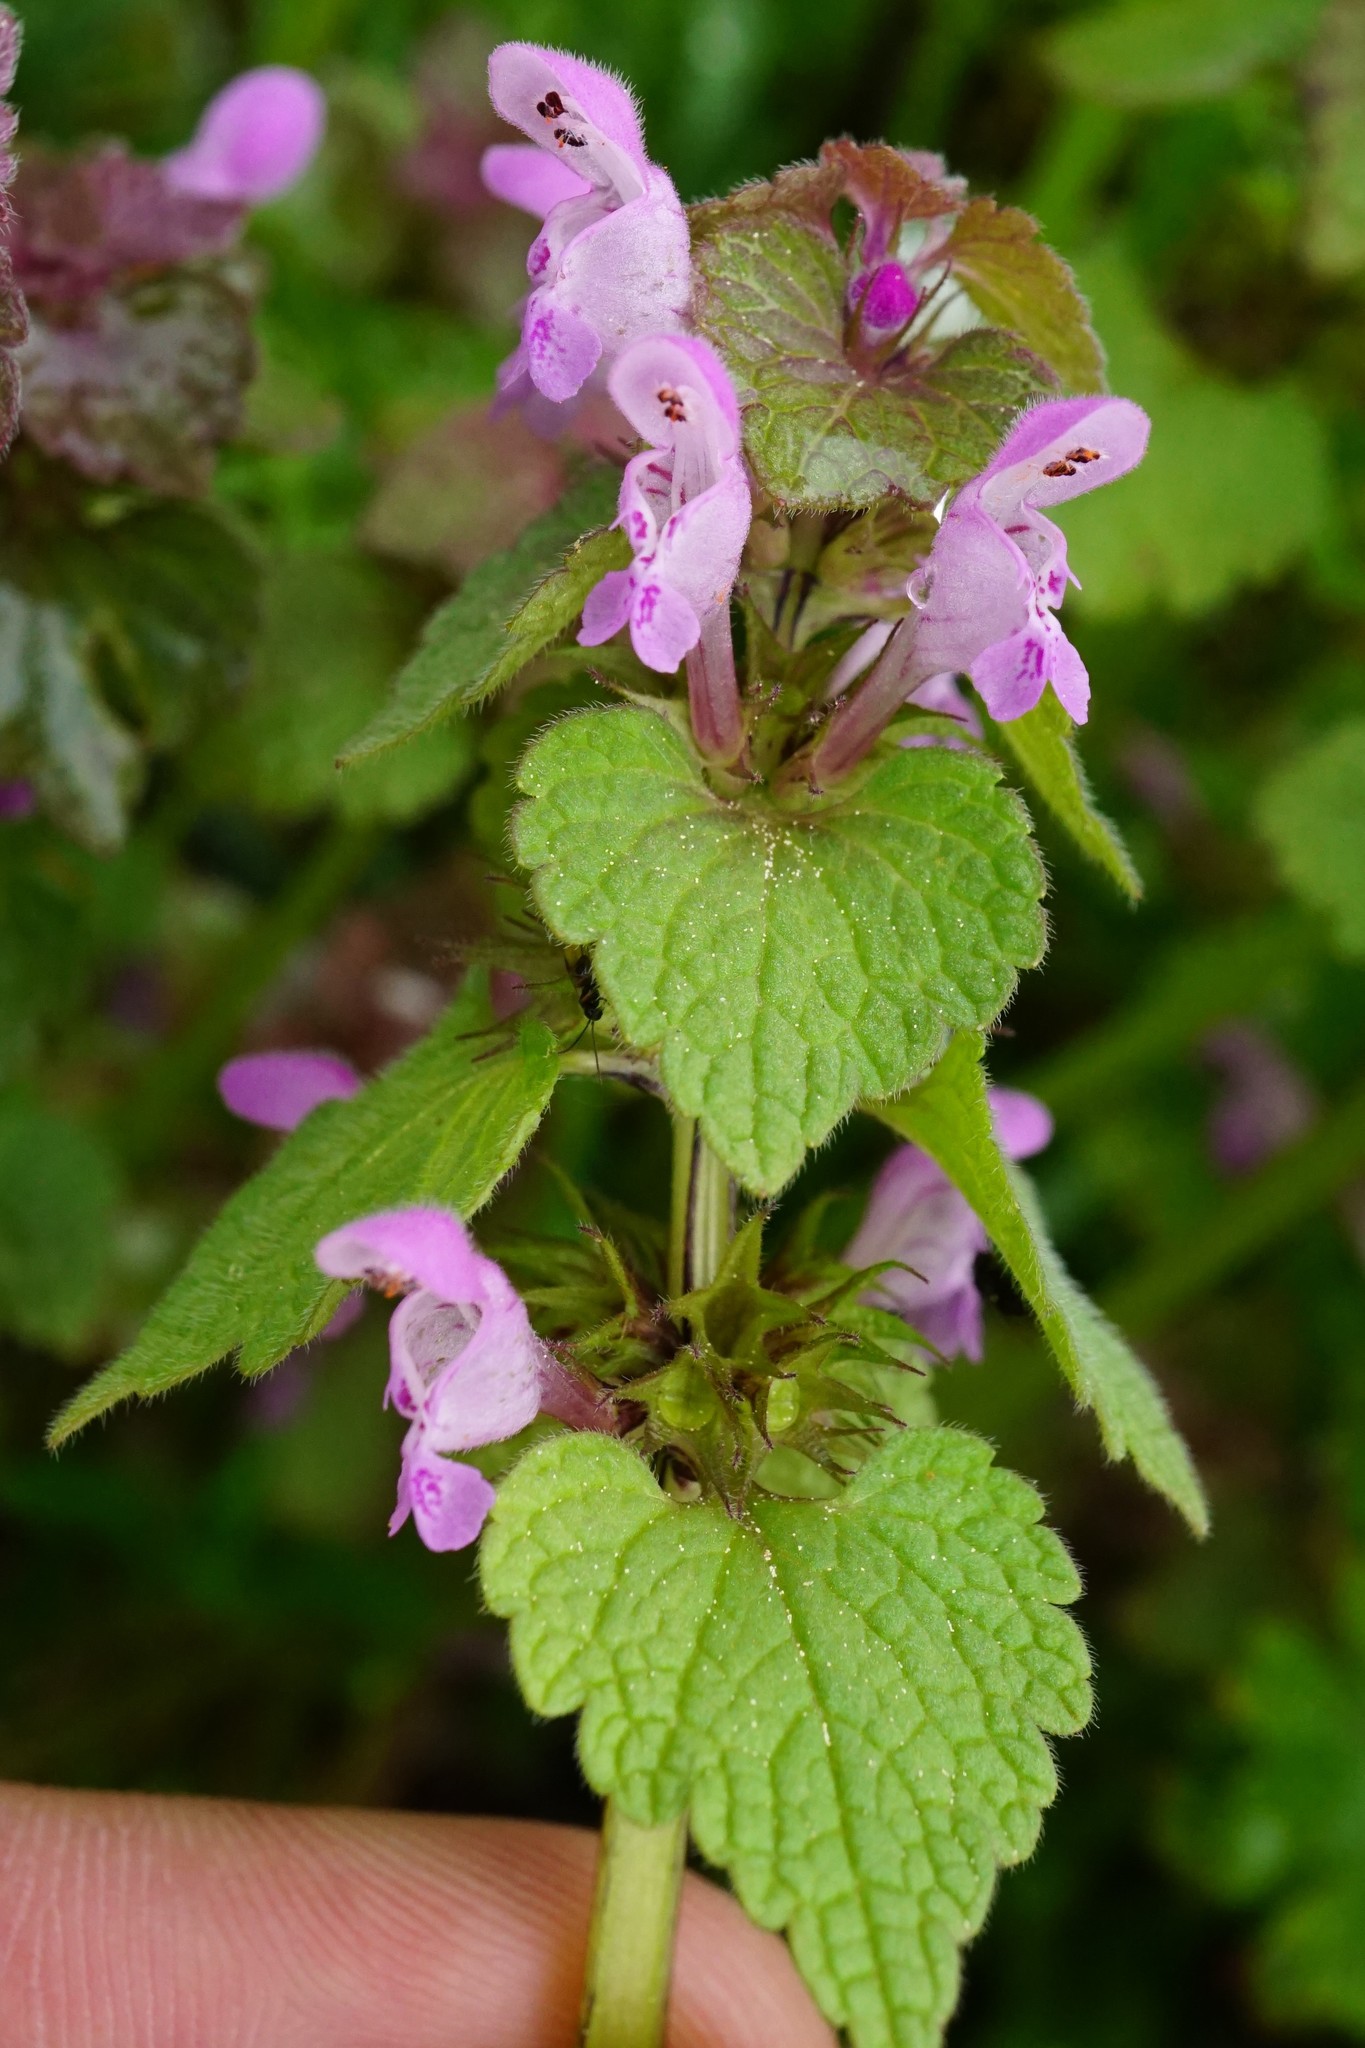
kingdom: Plantae
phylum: Tracheophyta
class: Magnoliopsida
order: Lamiales
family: Lamiaceae
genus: Lamium
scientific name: Lamium purpureum
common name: Red dead-nettle
